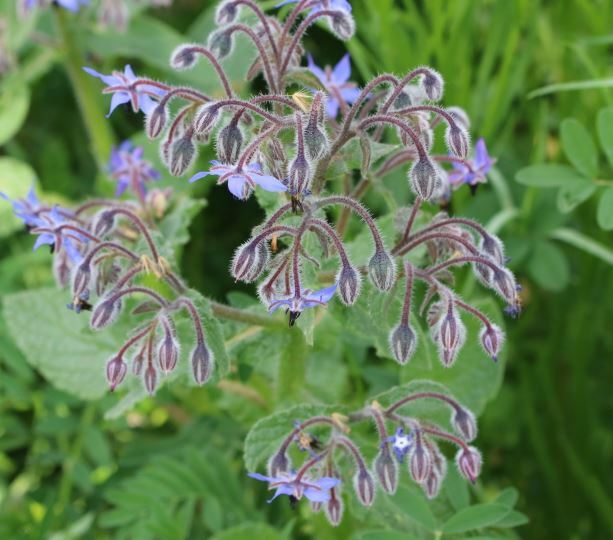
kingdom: Plantae
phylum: Tracheophyta
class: Magnoliopsida
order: Boraginales
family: Boraginaceae
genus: Borago
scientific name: Borago officinalis
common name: Borage
